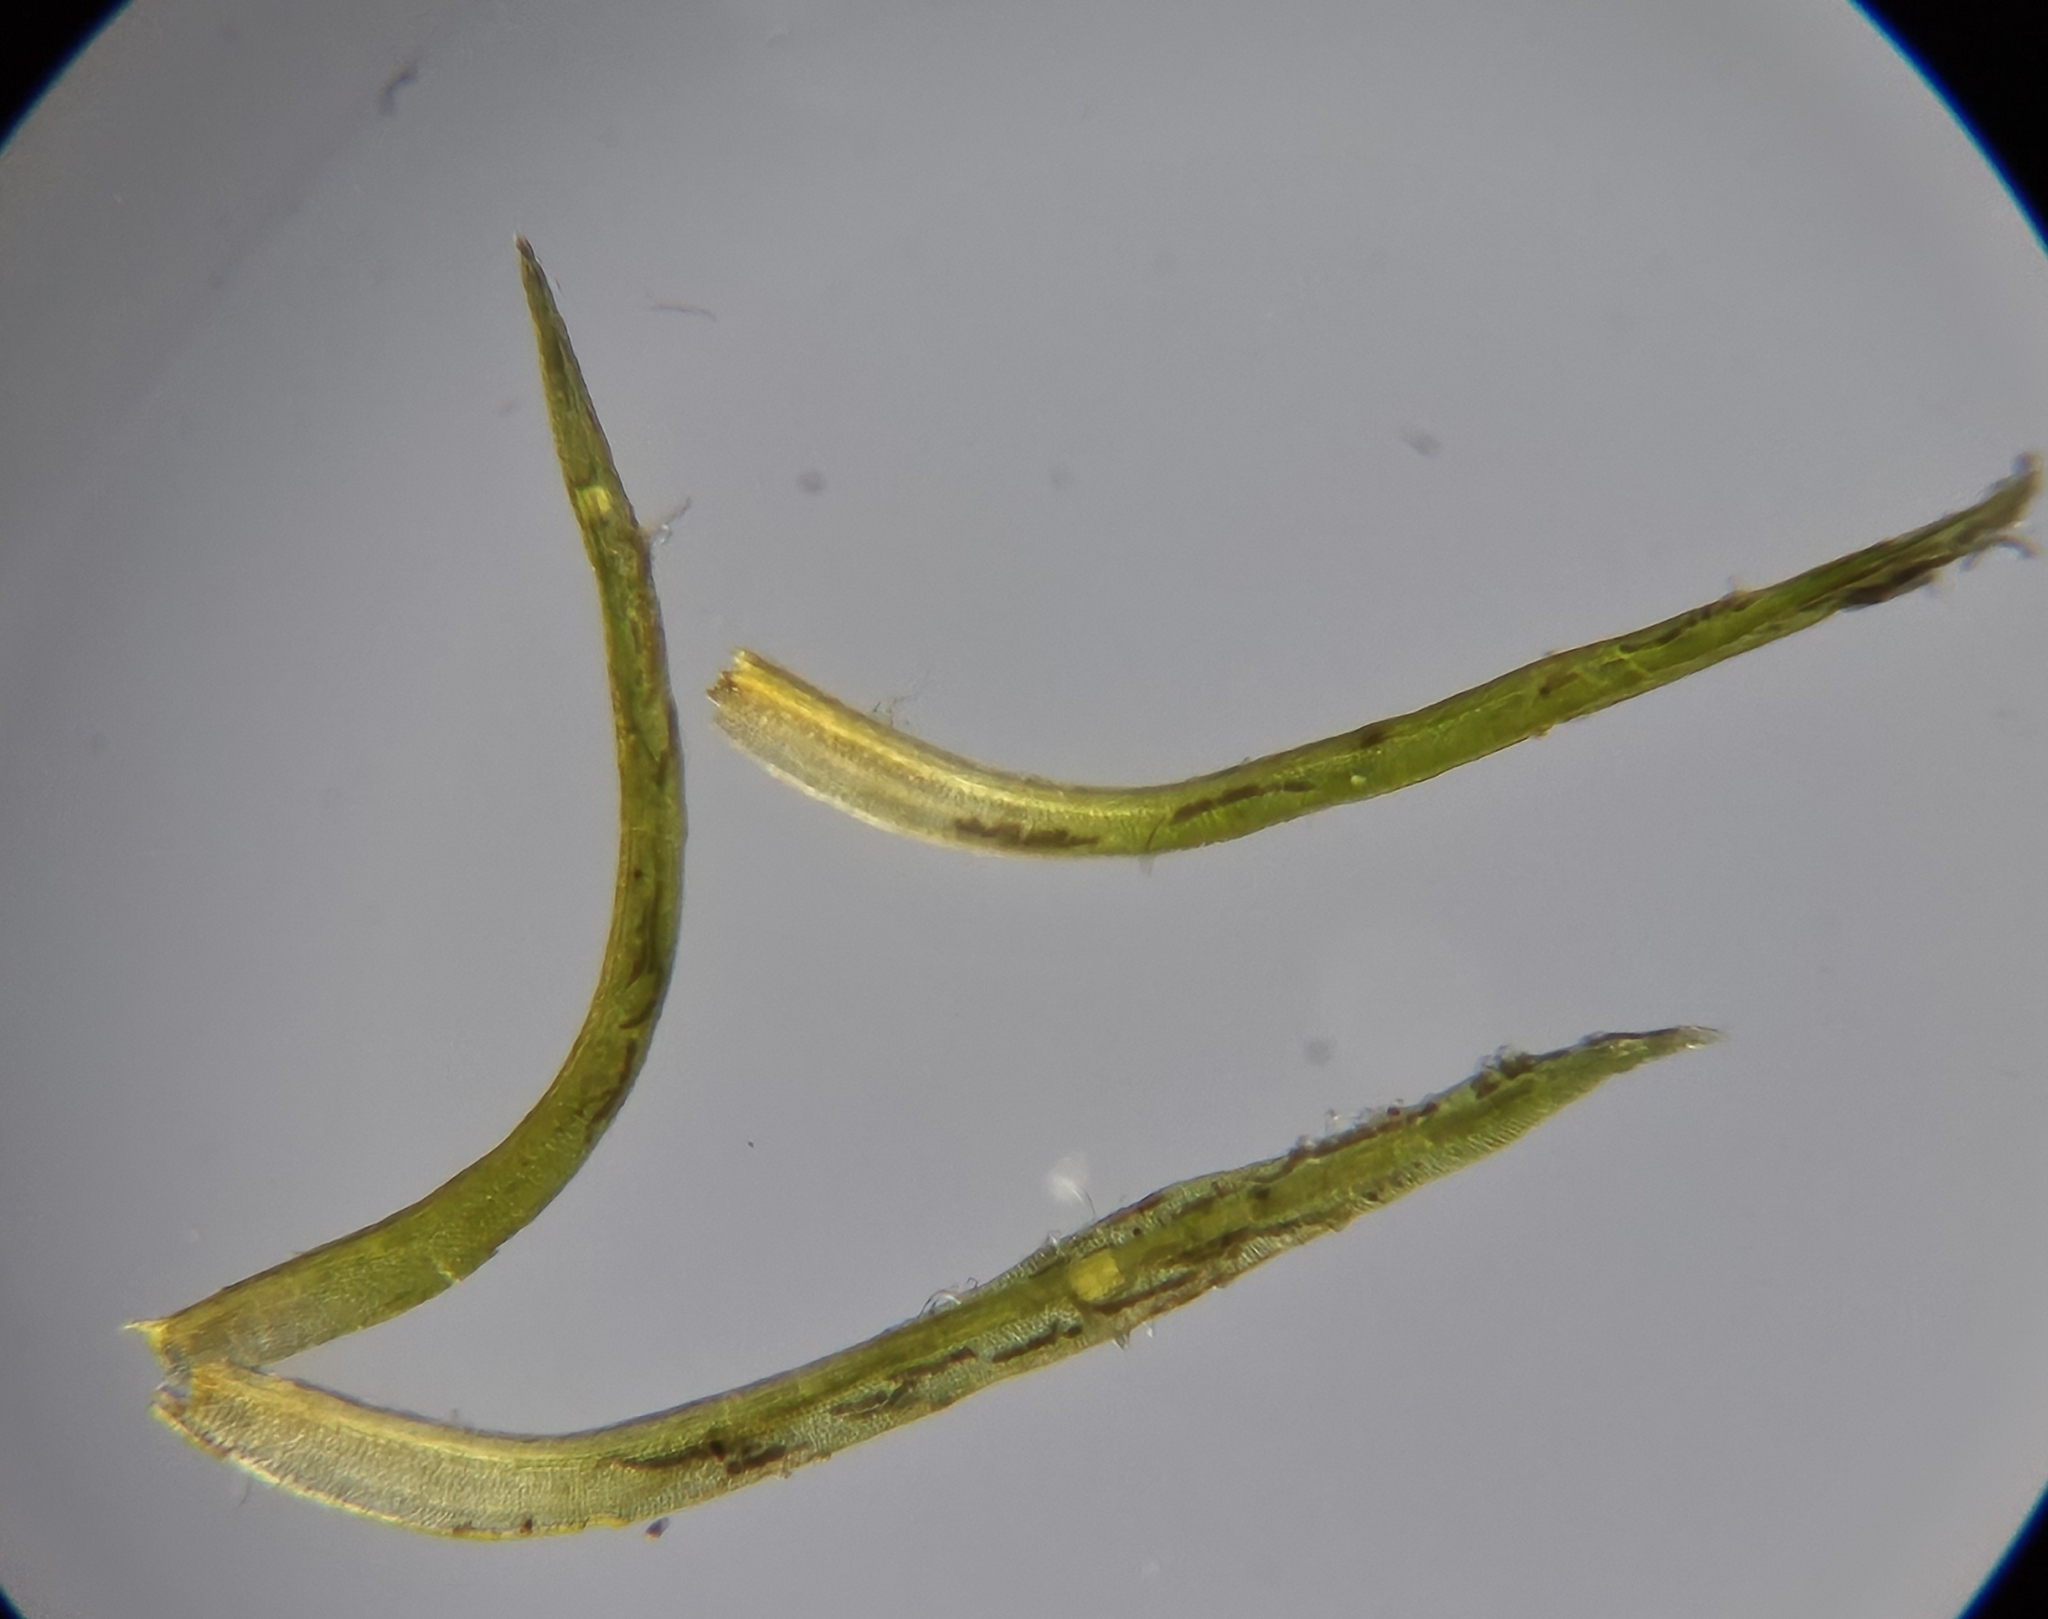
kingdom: Plantae
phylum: Bryophyta
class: Bryopsida
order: Dicranales
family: Amphidiaceae
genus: Amphidium
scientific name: Amphidium mougeotii
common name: Mougeot's yoke moss
